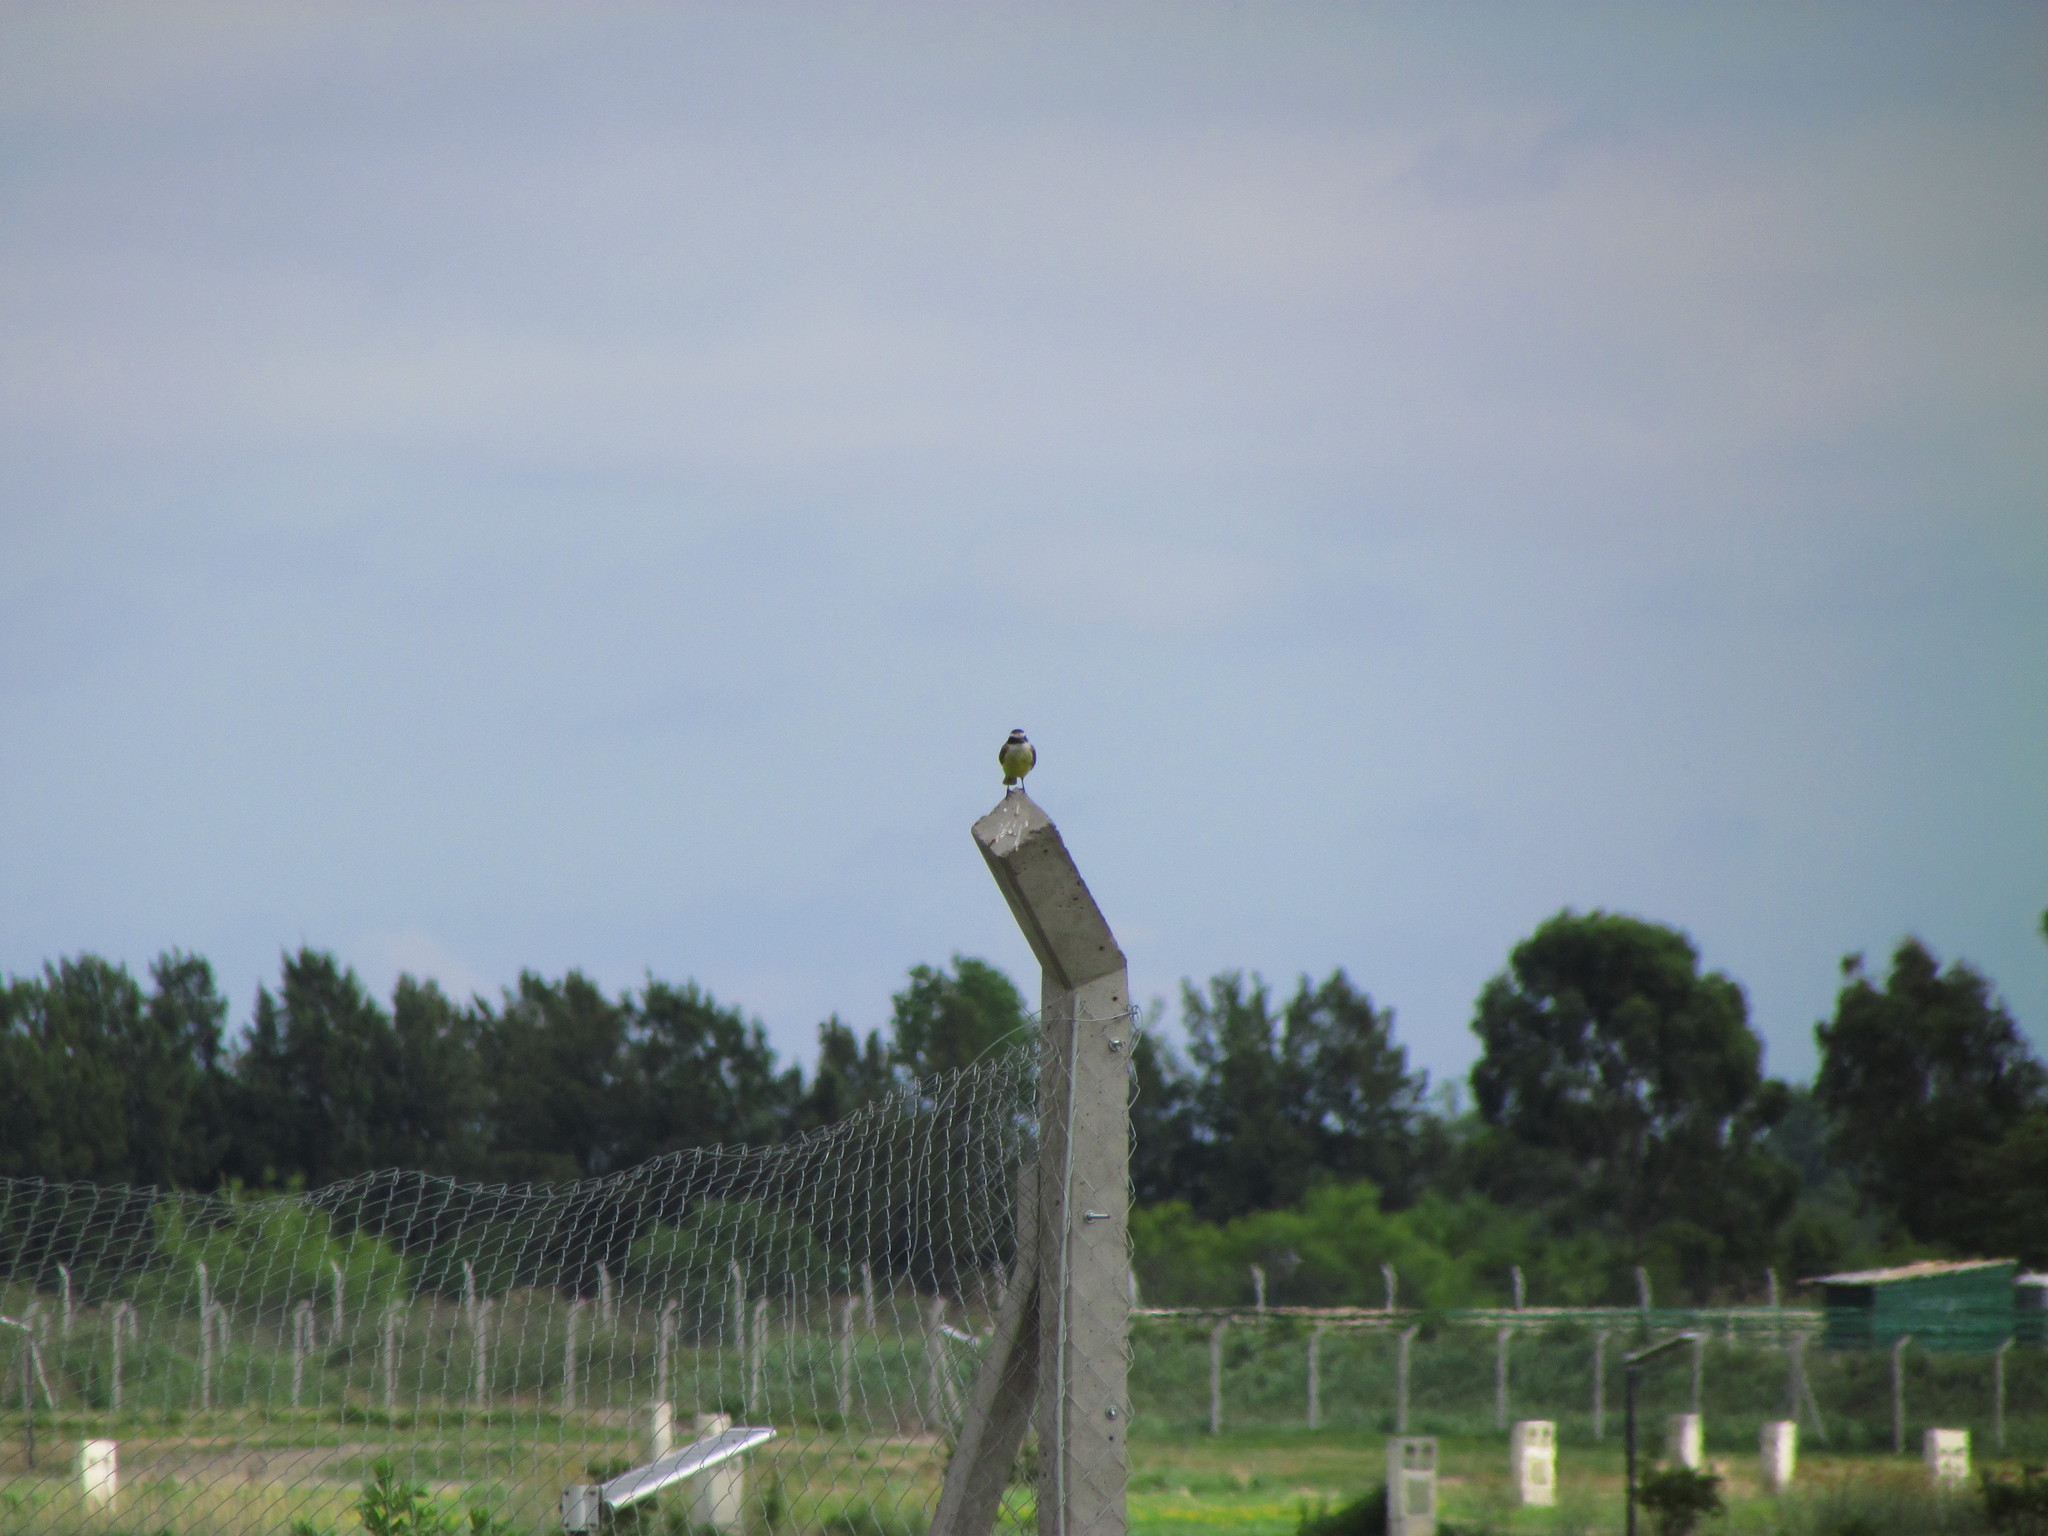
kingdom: Animalia
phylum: Chordata
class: Aves
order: Passeriformes
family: Tyrannidae
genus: Pitangus
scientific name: Pitangus sulphuratus
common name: Great kiskadee
